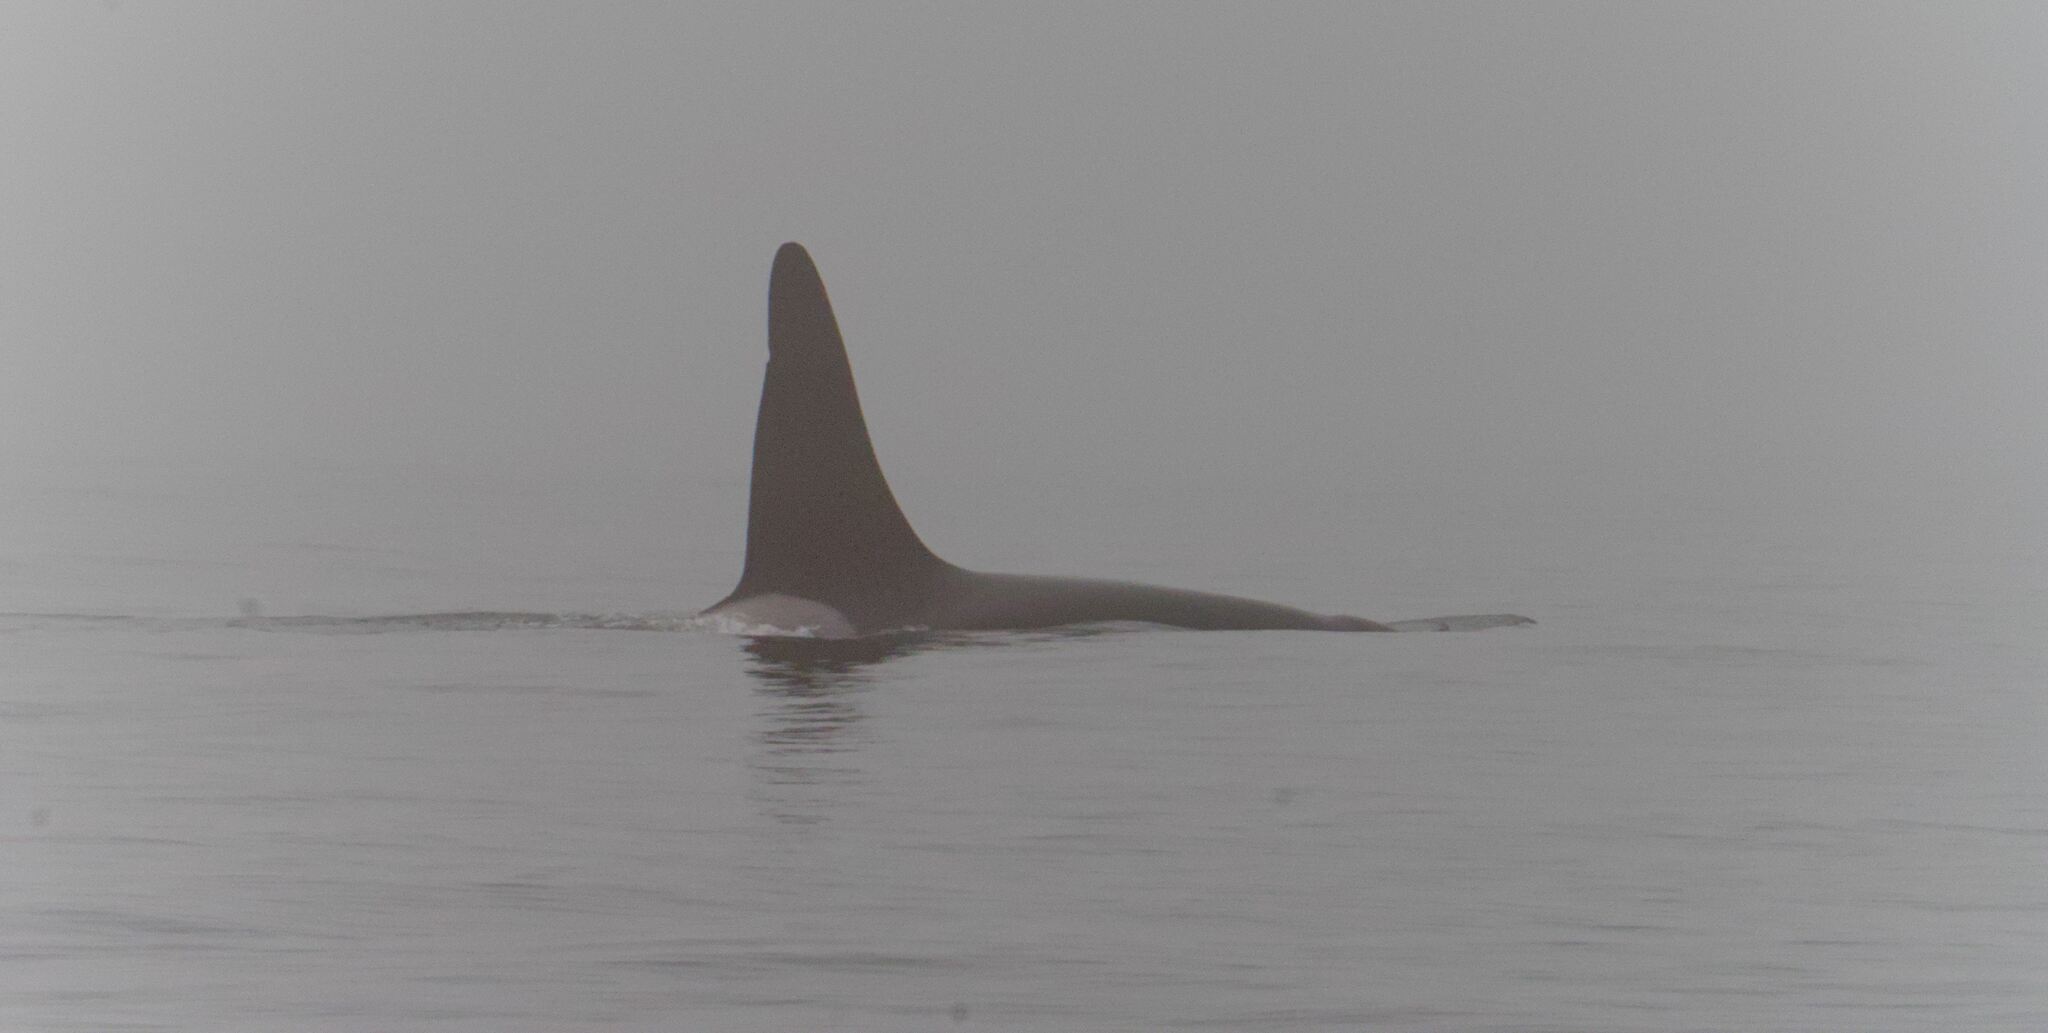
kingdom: Animalia
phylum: Chordata
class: Mammalia
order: Cetacea
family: Delphinidae
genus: Orcinus
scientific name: Orcinus orca
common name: Killer whale
